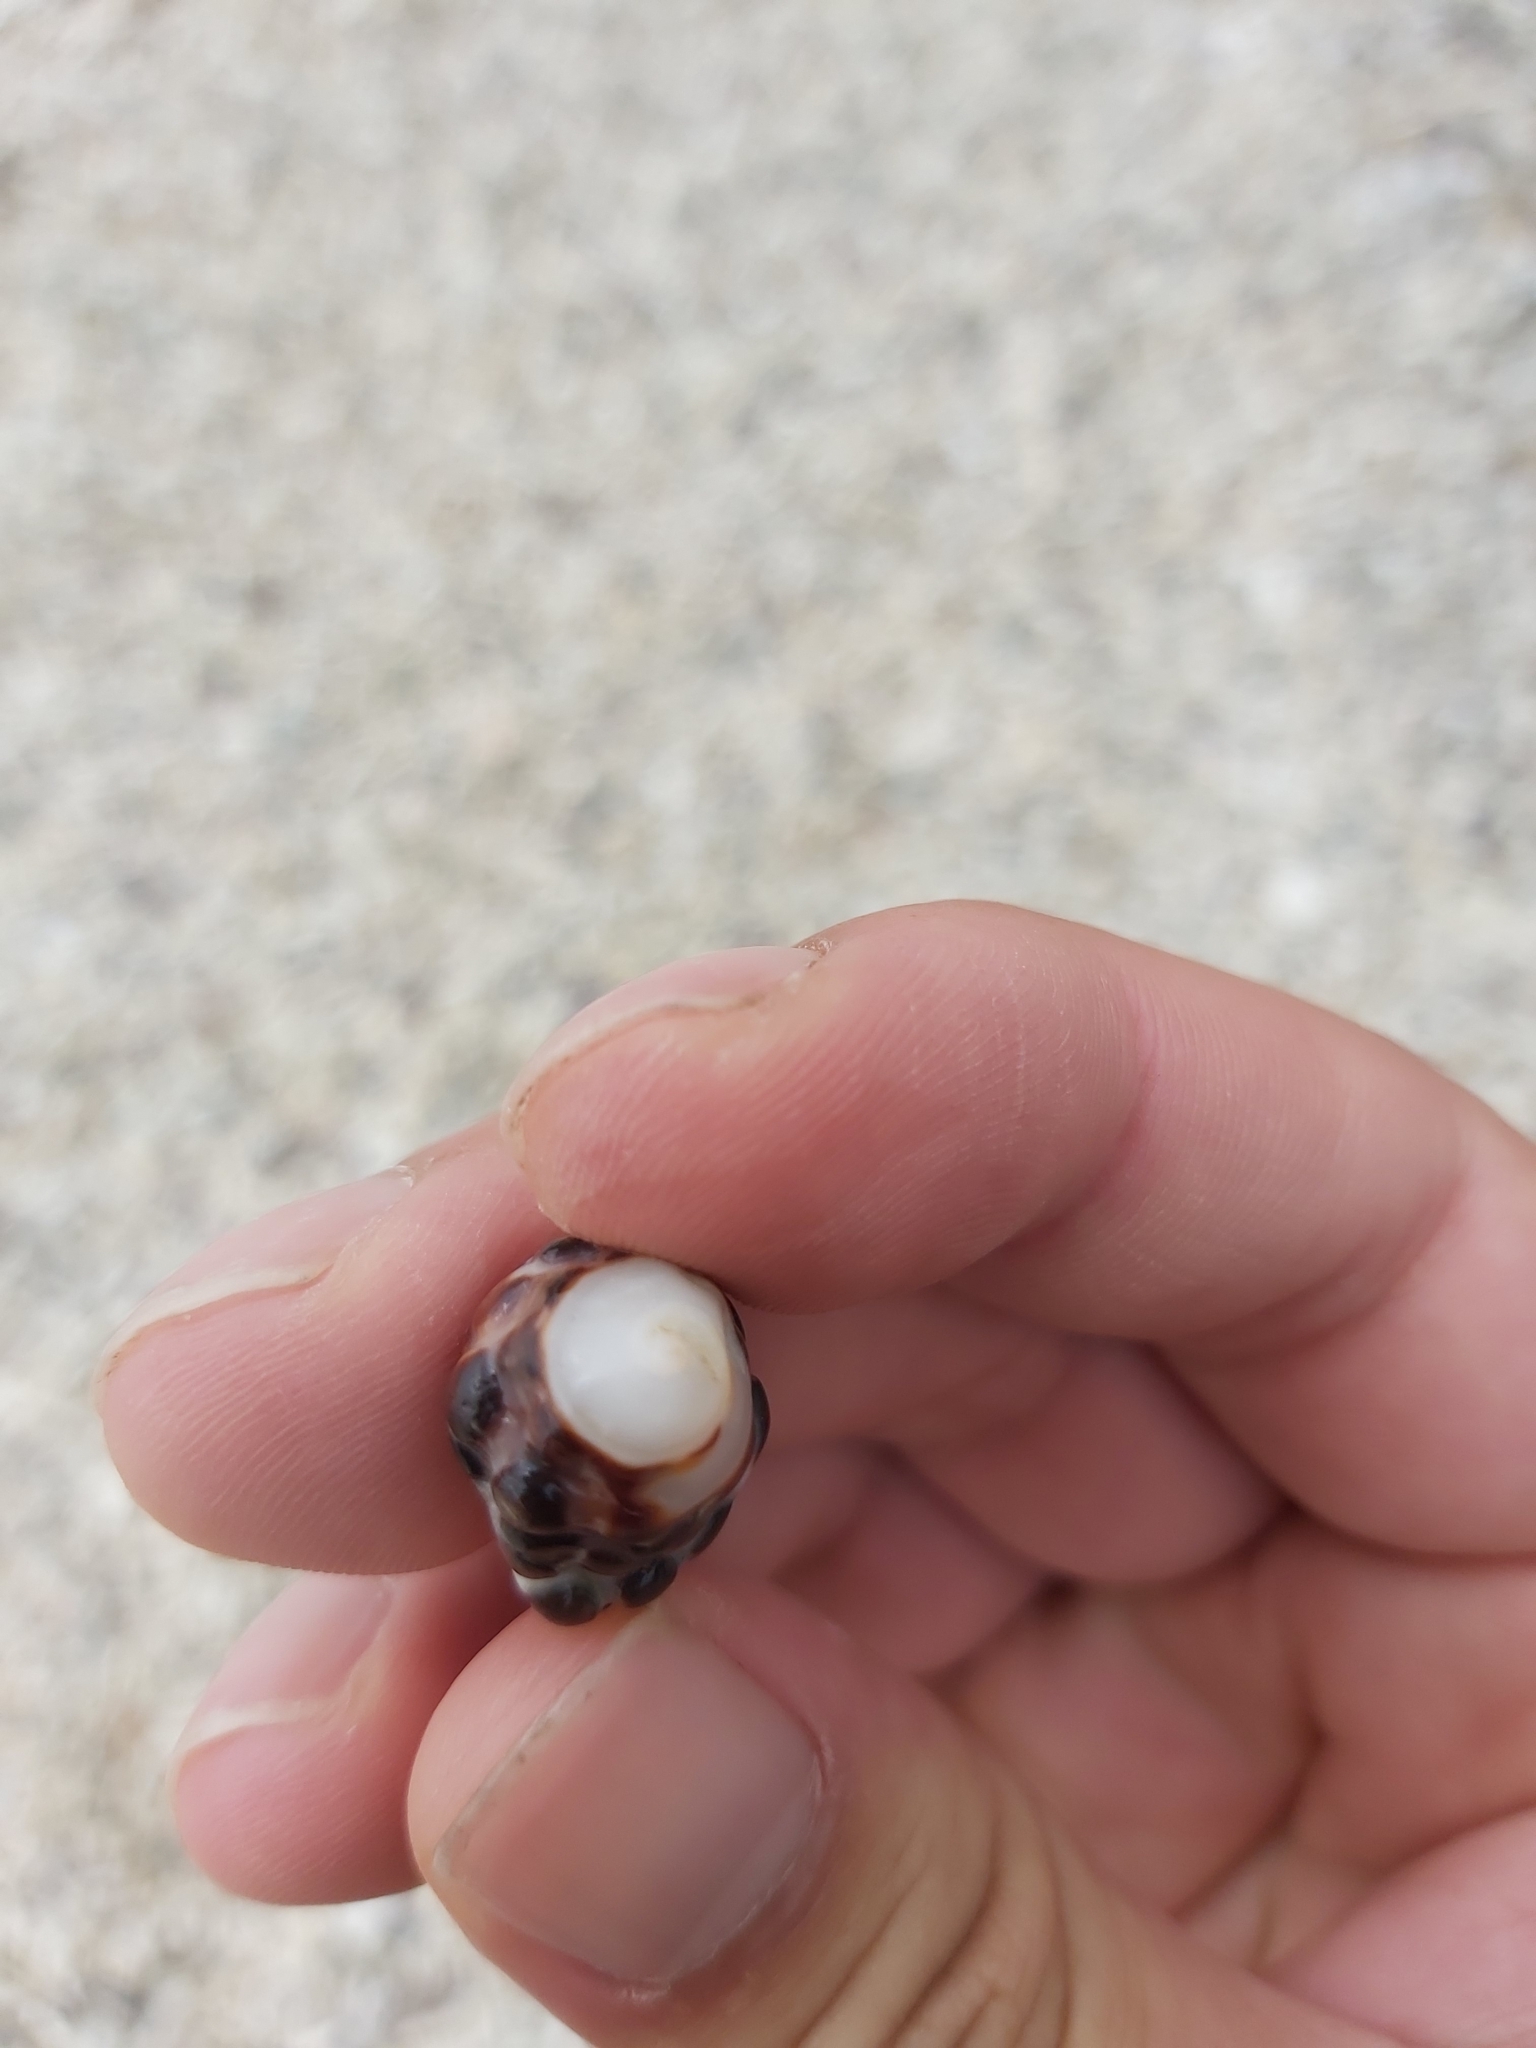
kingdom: Animalia
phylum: Mollusca
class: Gastropoda
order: Neogastropoda
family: Muricidae
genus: Tenguella
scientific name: Tenguella marginalba
